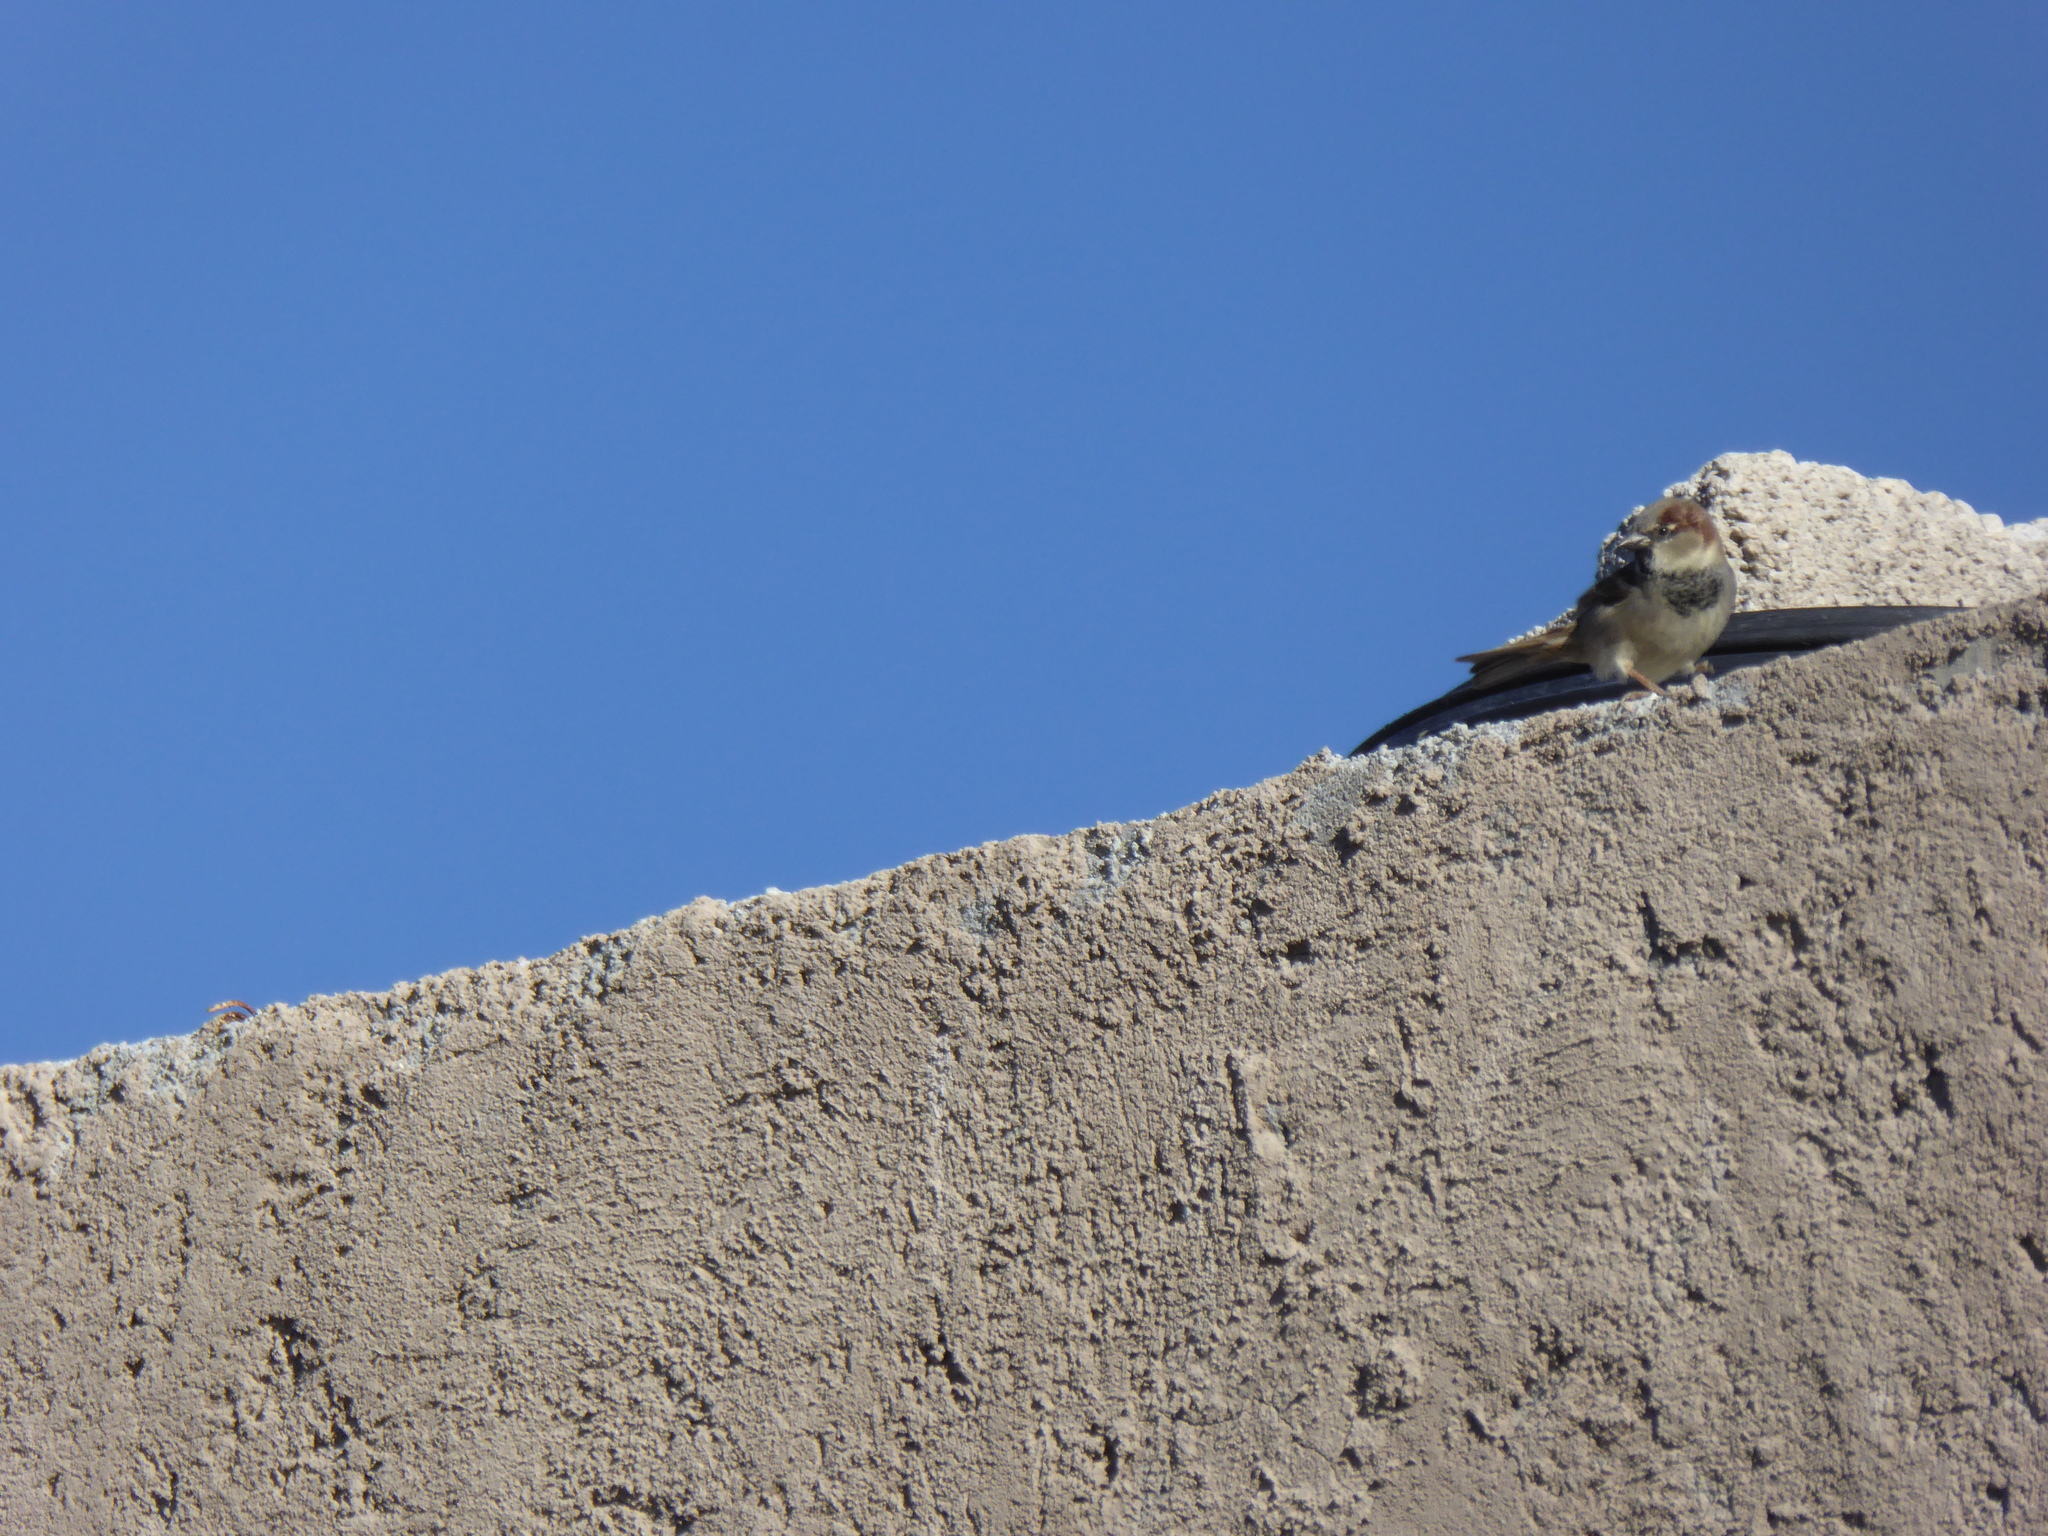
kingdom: Animalia
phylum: Chordata
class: Aves
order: Passeriformes
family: Passeridae
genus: Passer
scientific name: Passer domesticus
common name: House sparrow
